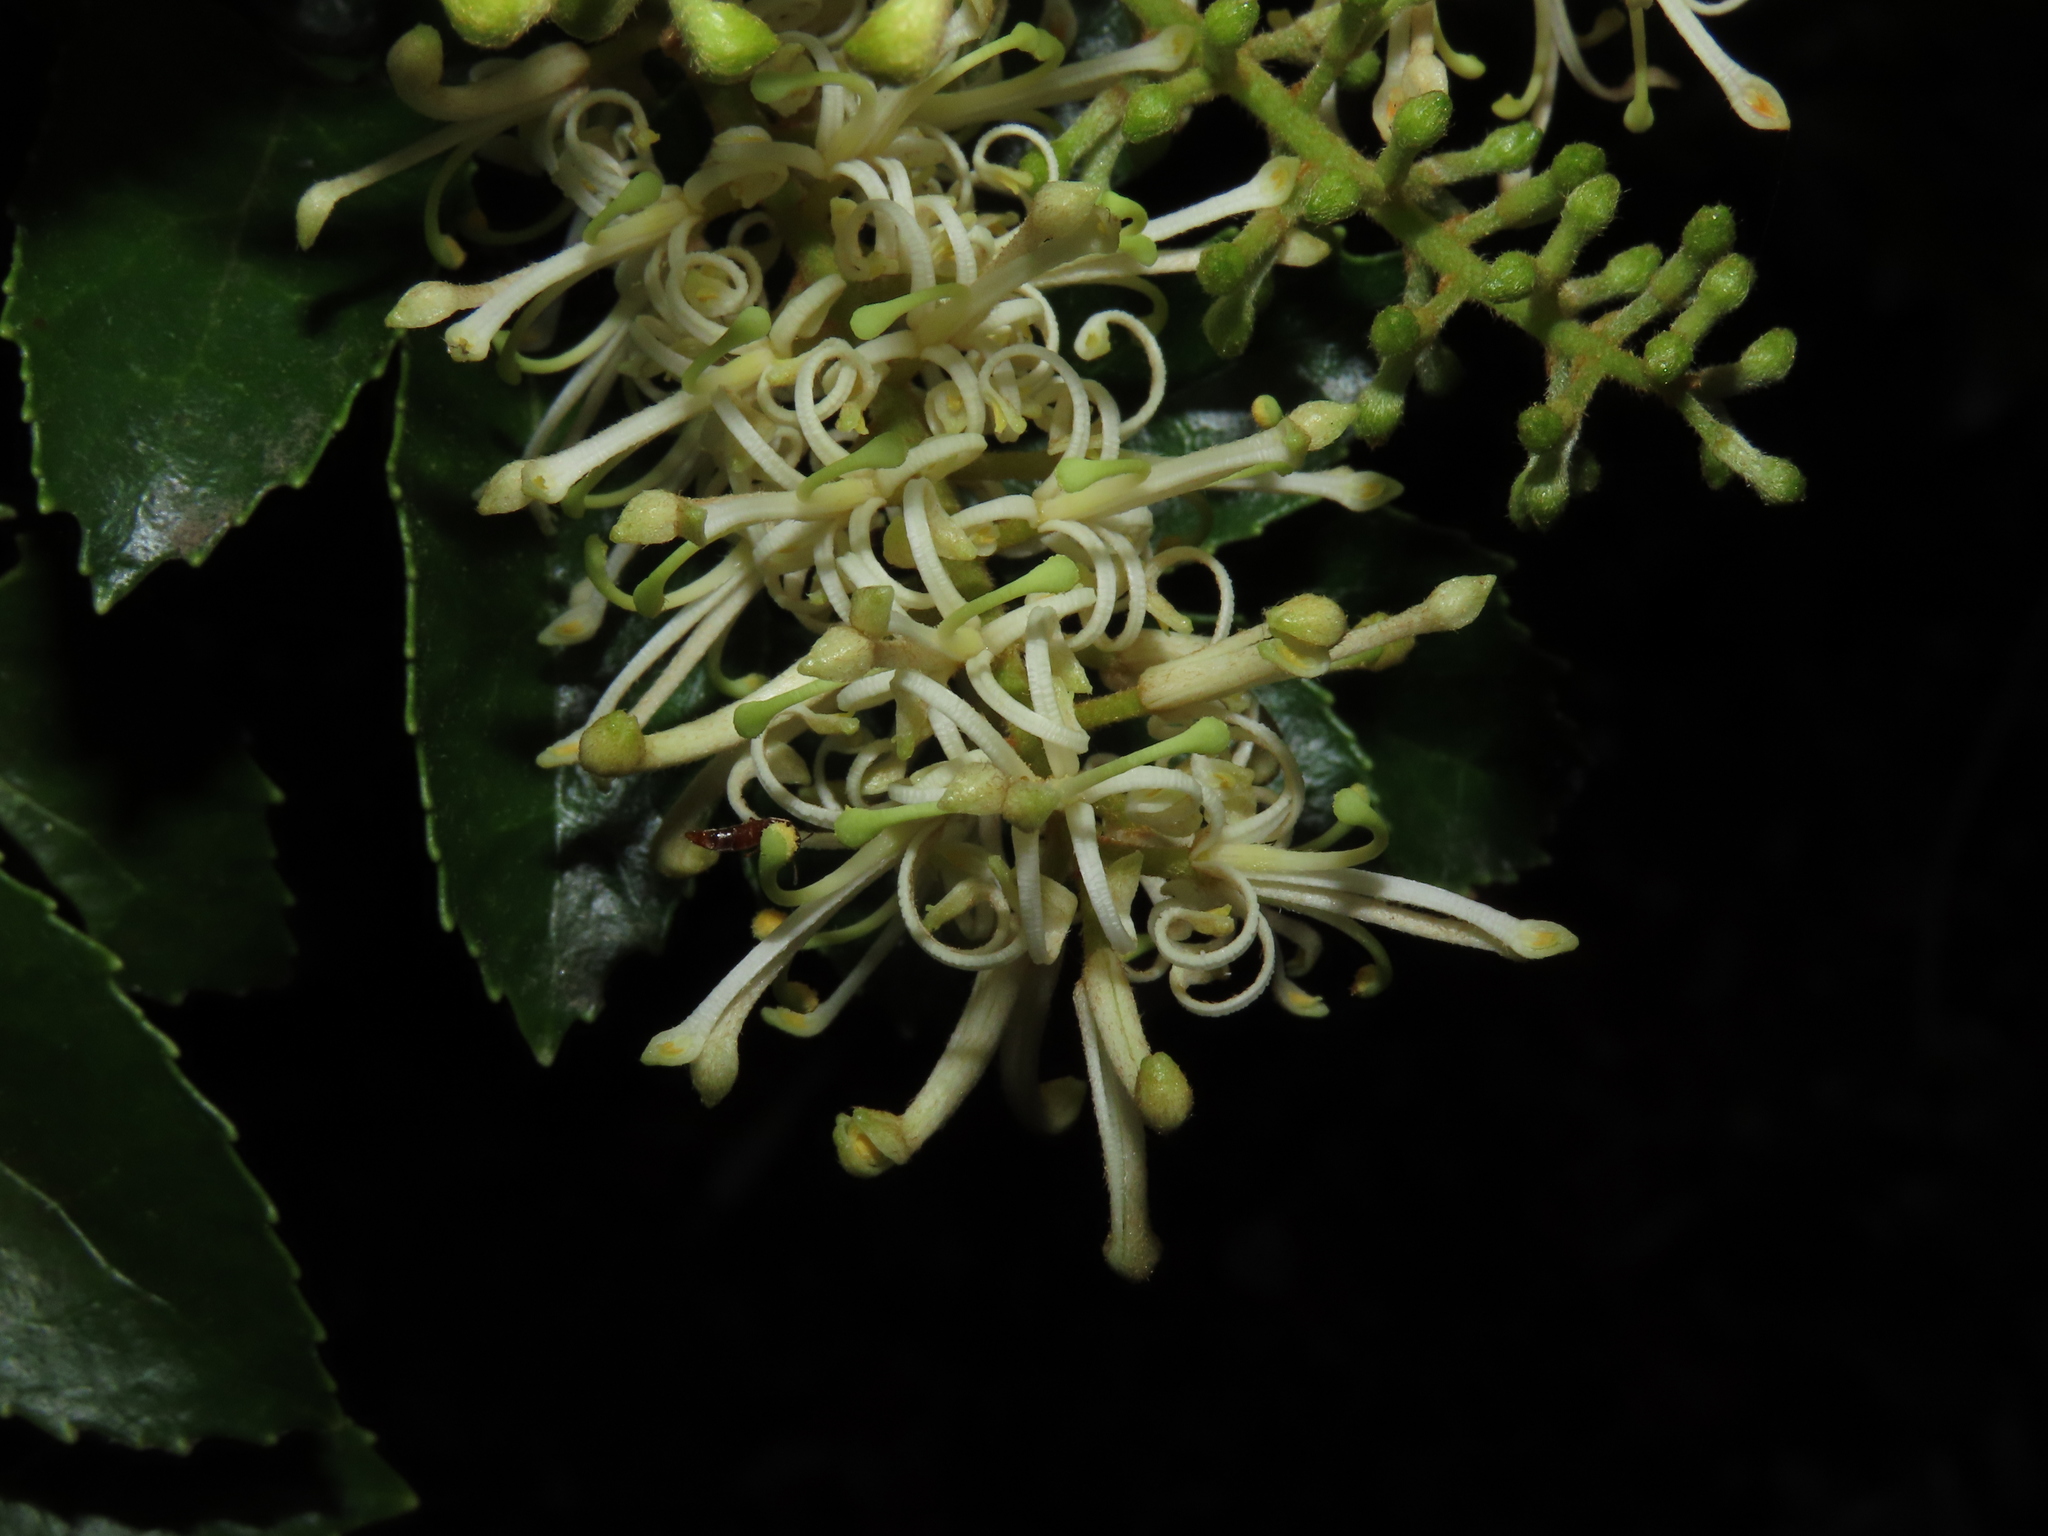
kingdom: Plantae
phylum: Tracheophyta
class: Magnoliopsida
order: Proteales
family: Proteaceae
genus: Gevuina
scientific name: Gevuina avellana
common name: Chilean hazel
